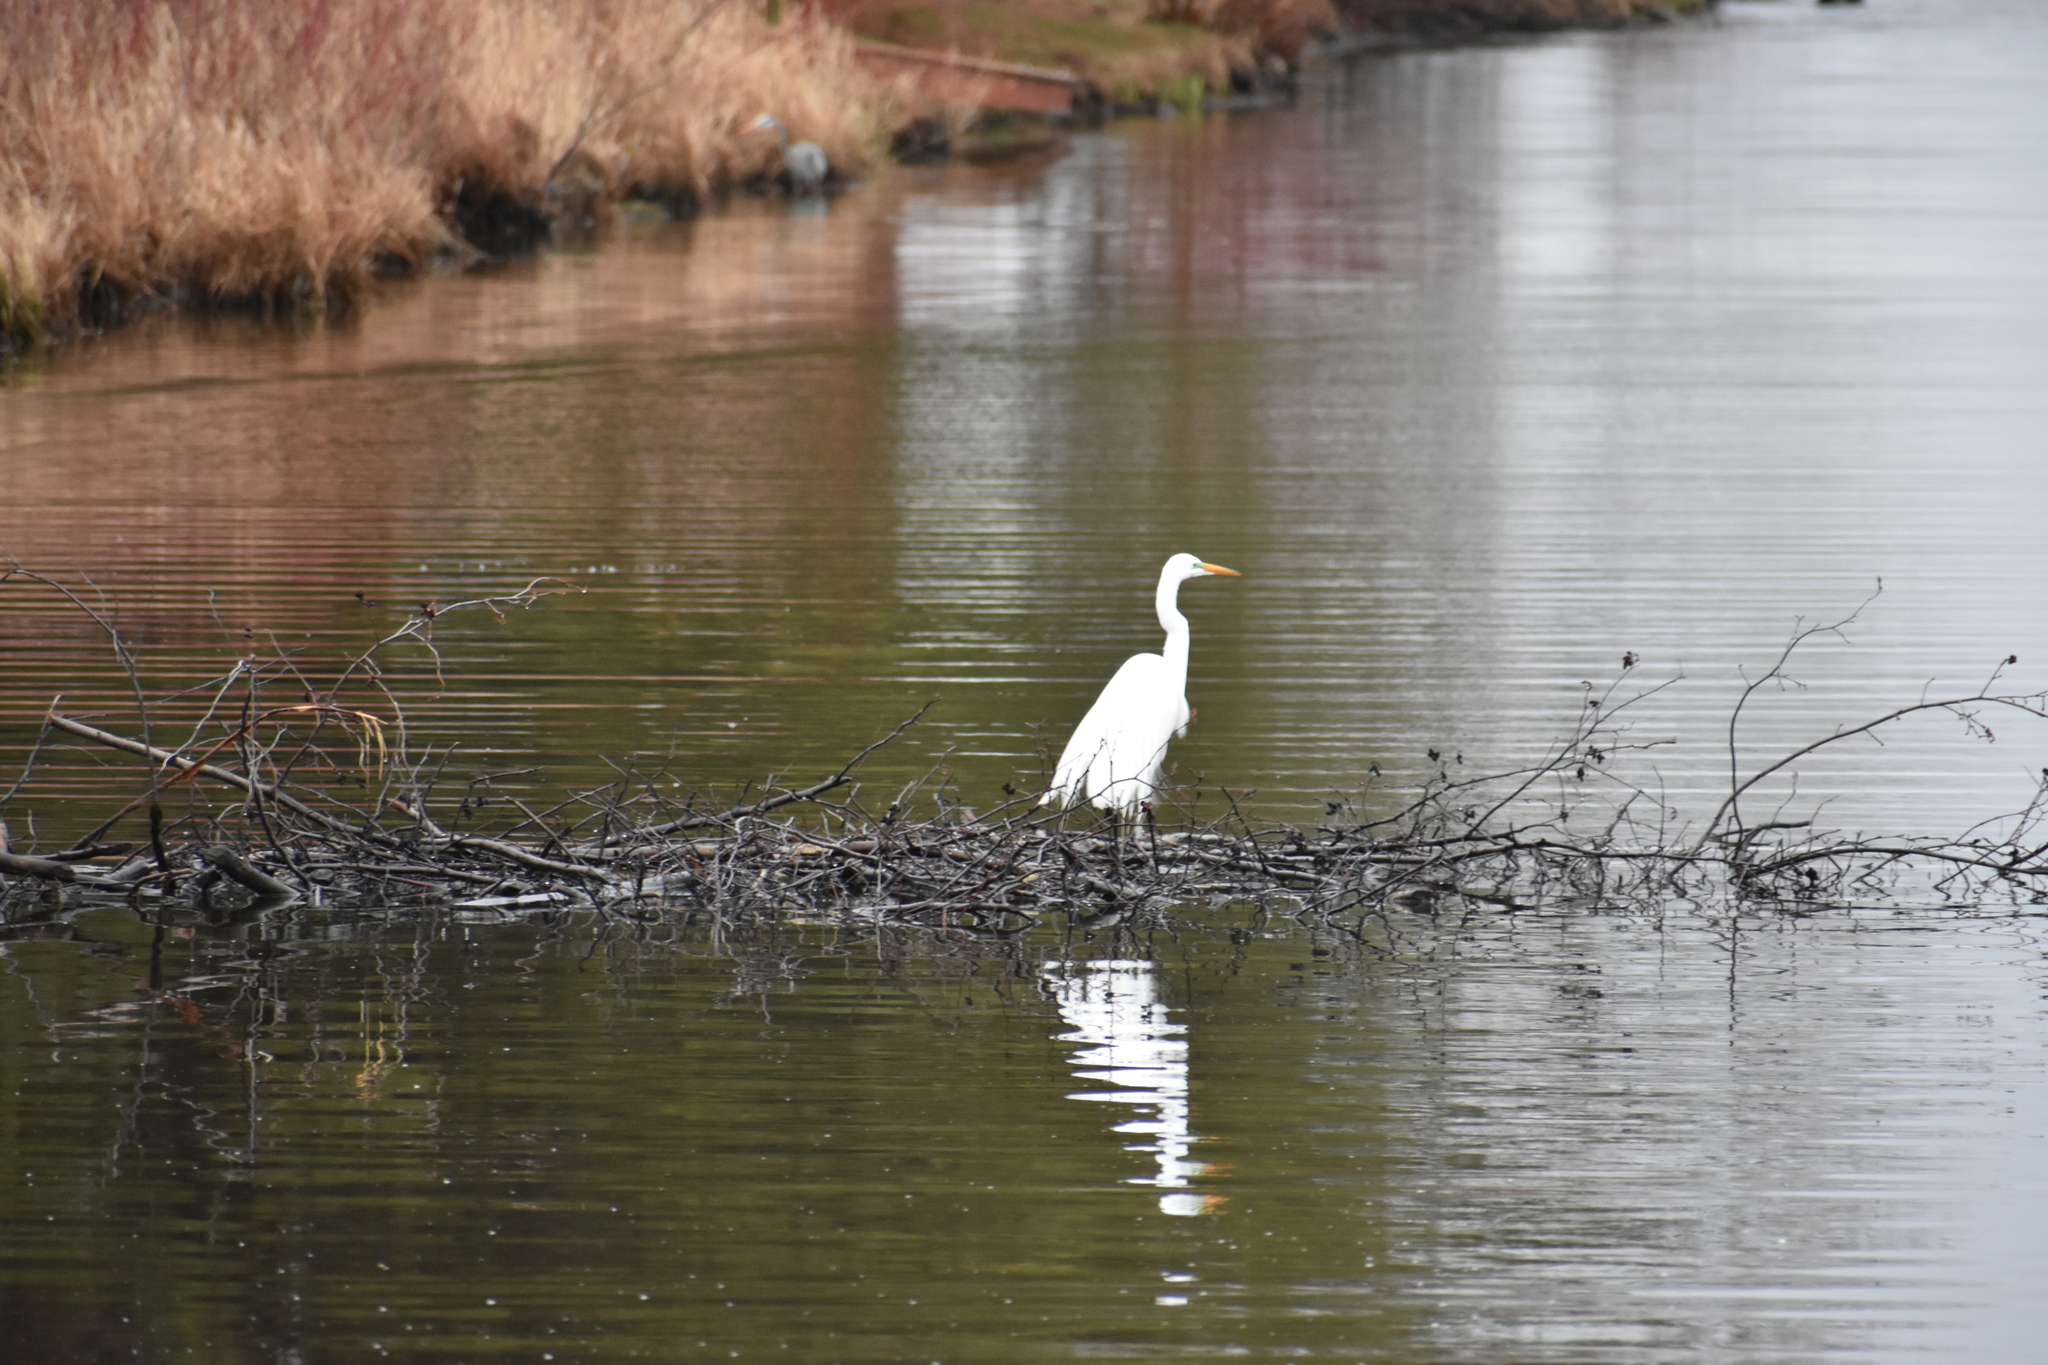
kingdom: Animalia
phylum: Chordata
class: Aves
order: Pelecaniformes
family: Ardeidae
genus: Ardea
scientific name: Ardea alba
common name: Great egret
